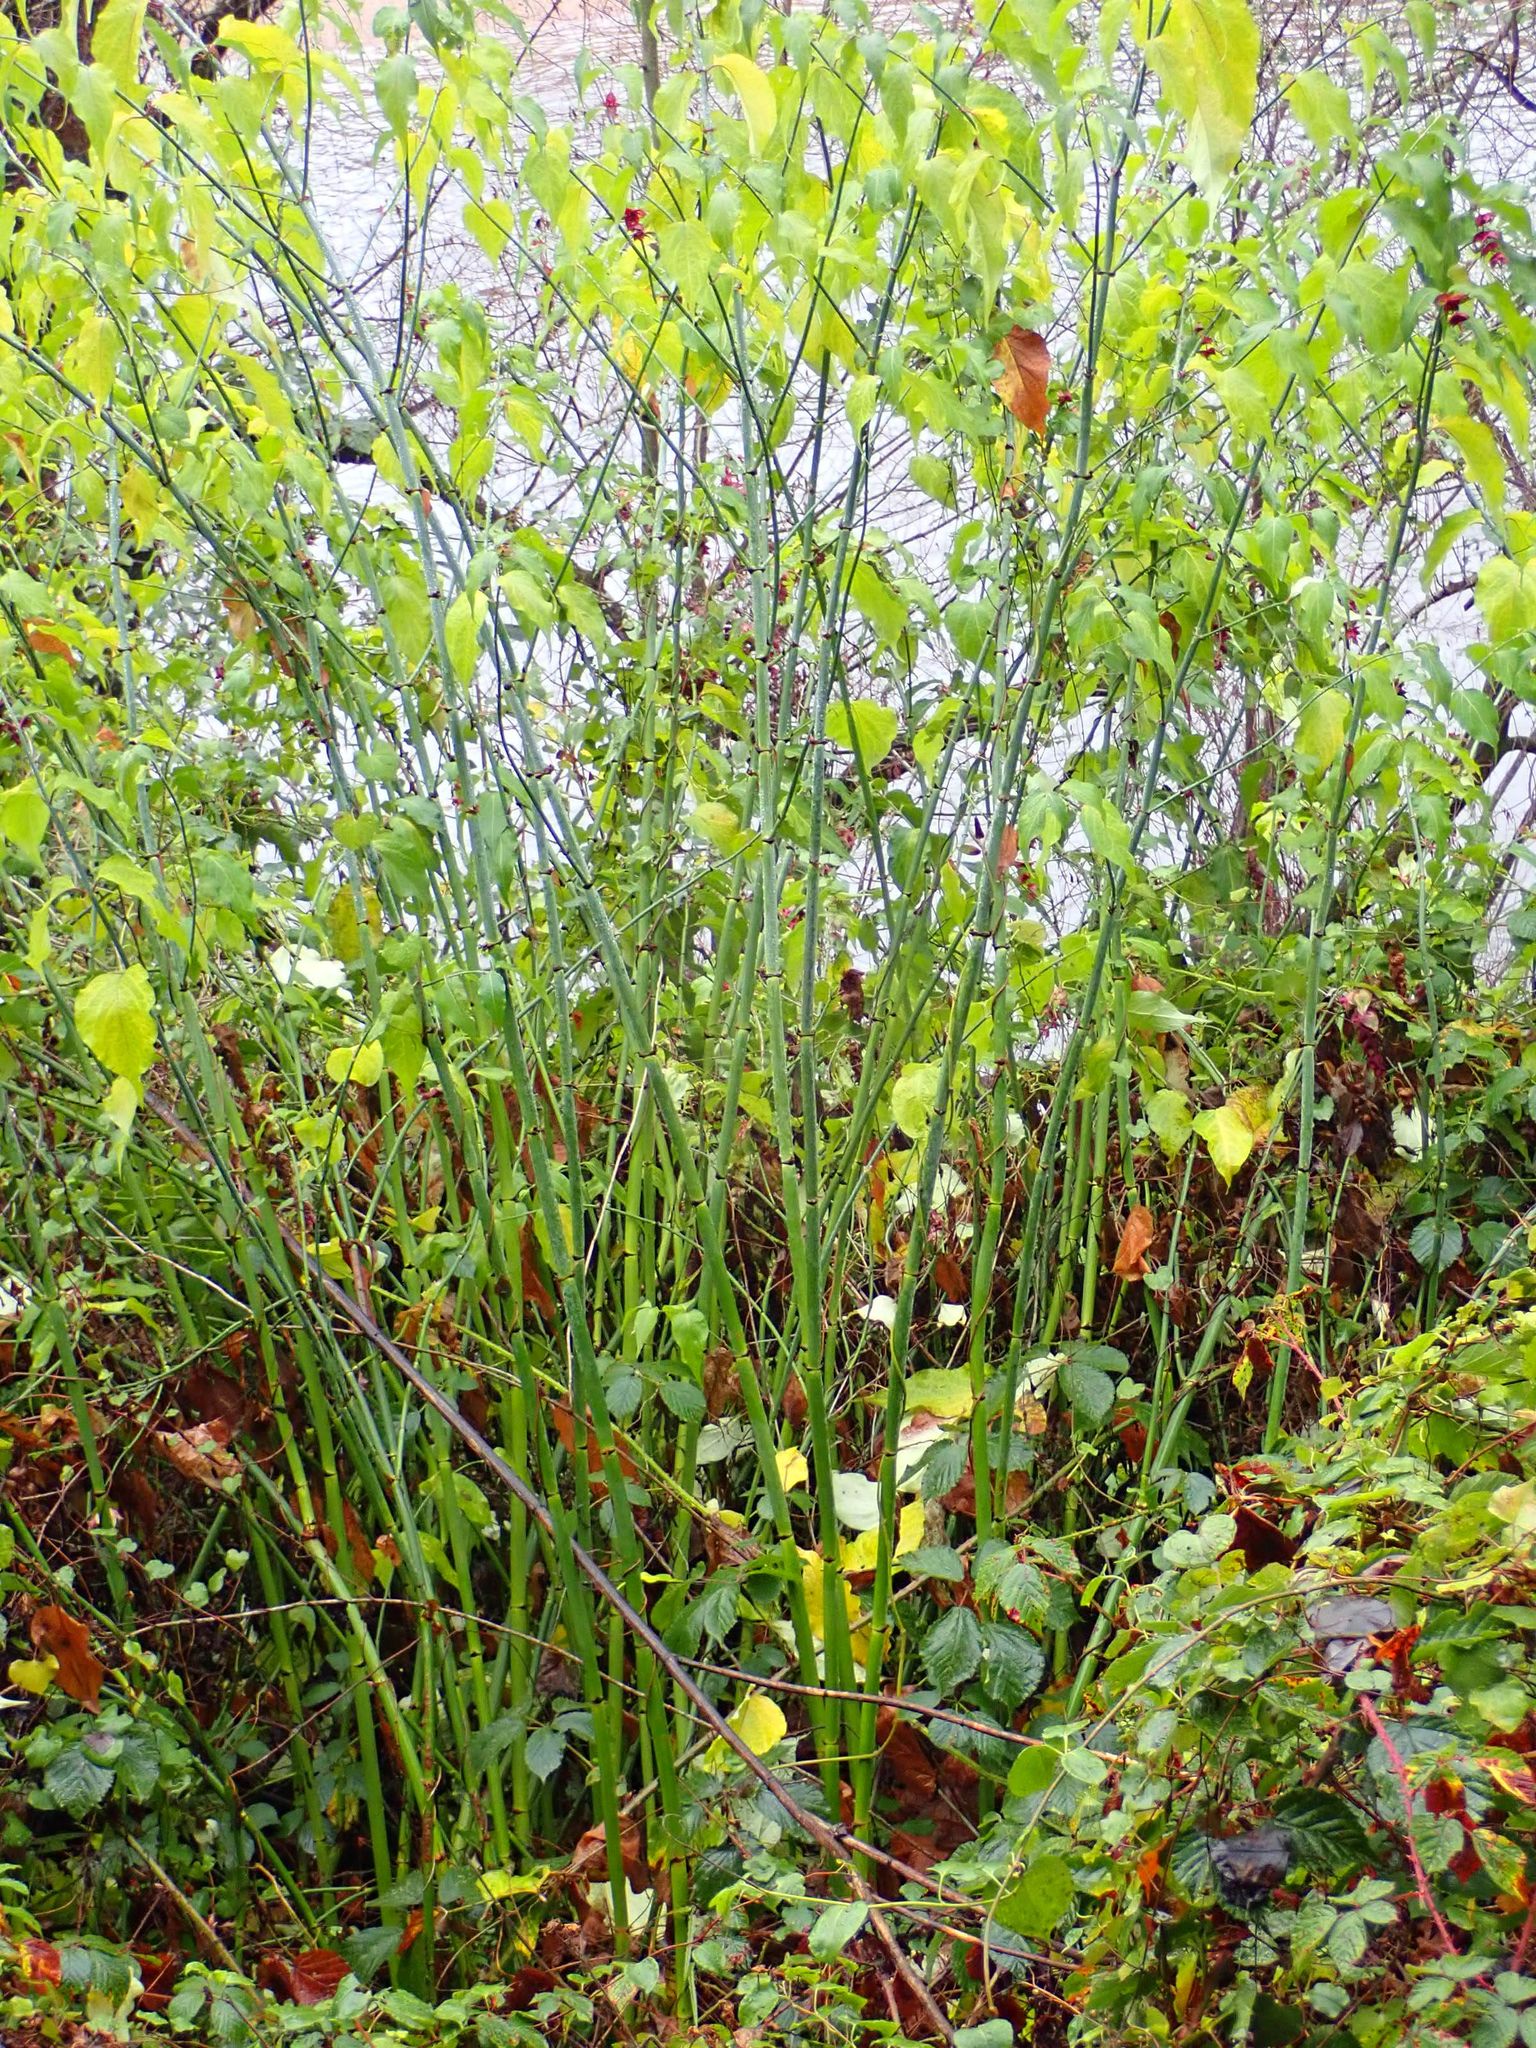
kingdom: Plantae
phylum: Tracheophyta
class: Magnoliopsida
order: Dipsacales
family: Caprifoliaceae
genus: Leycesteria
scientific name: Leycesteria formosa
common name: Himalayan honeysuckle
